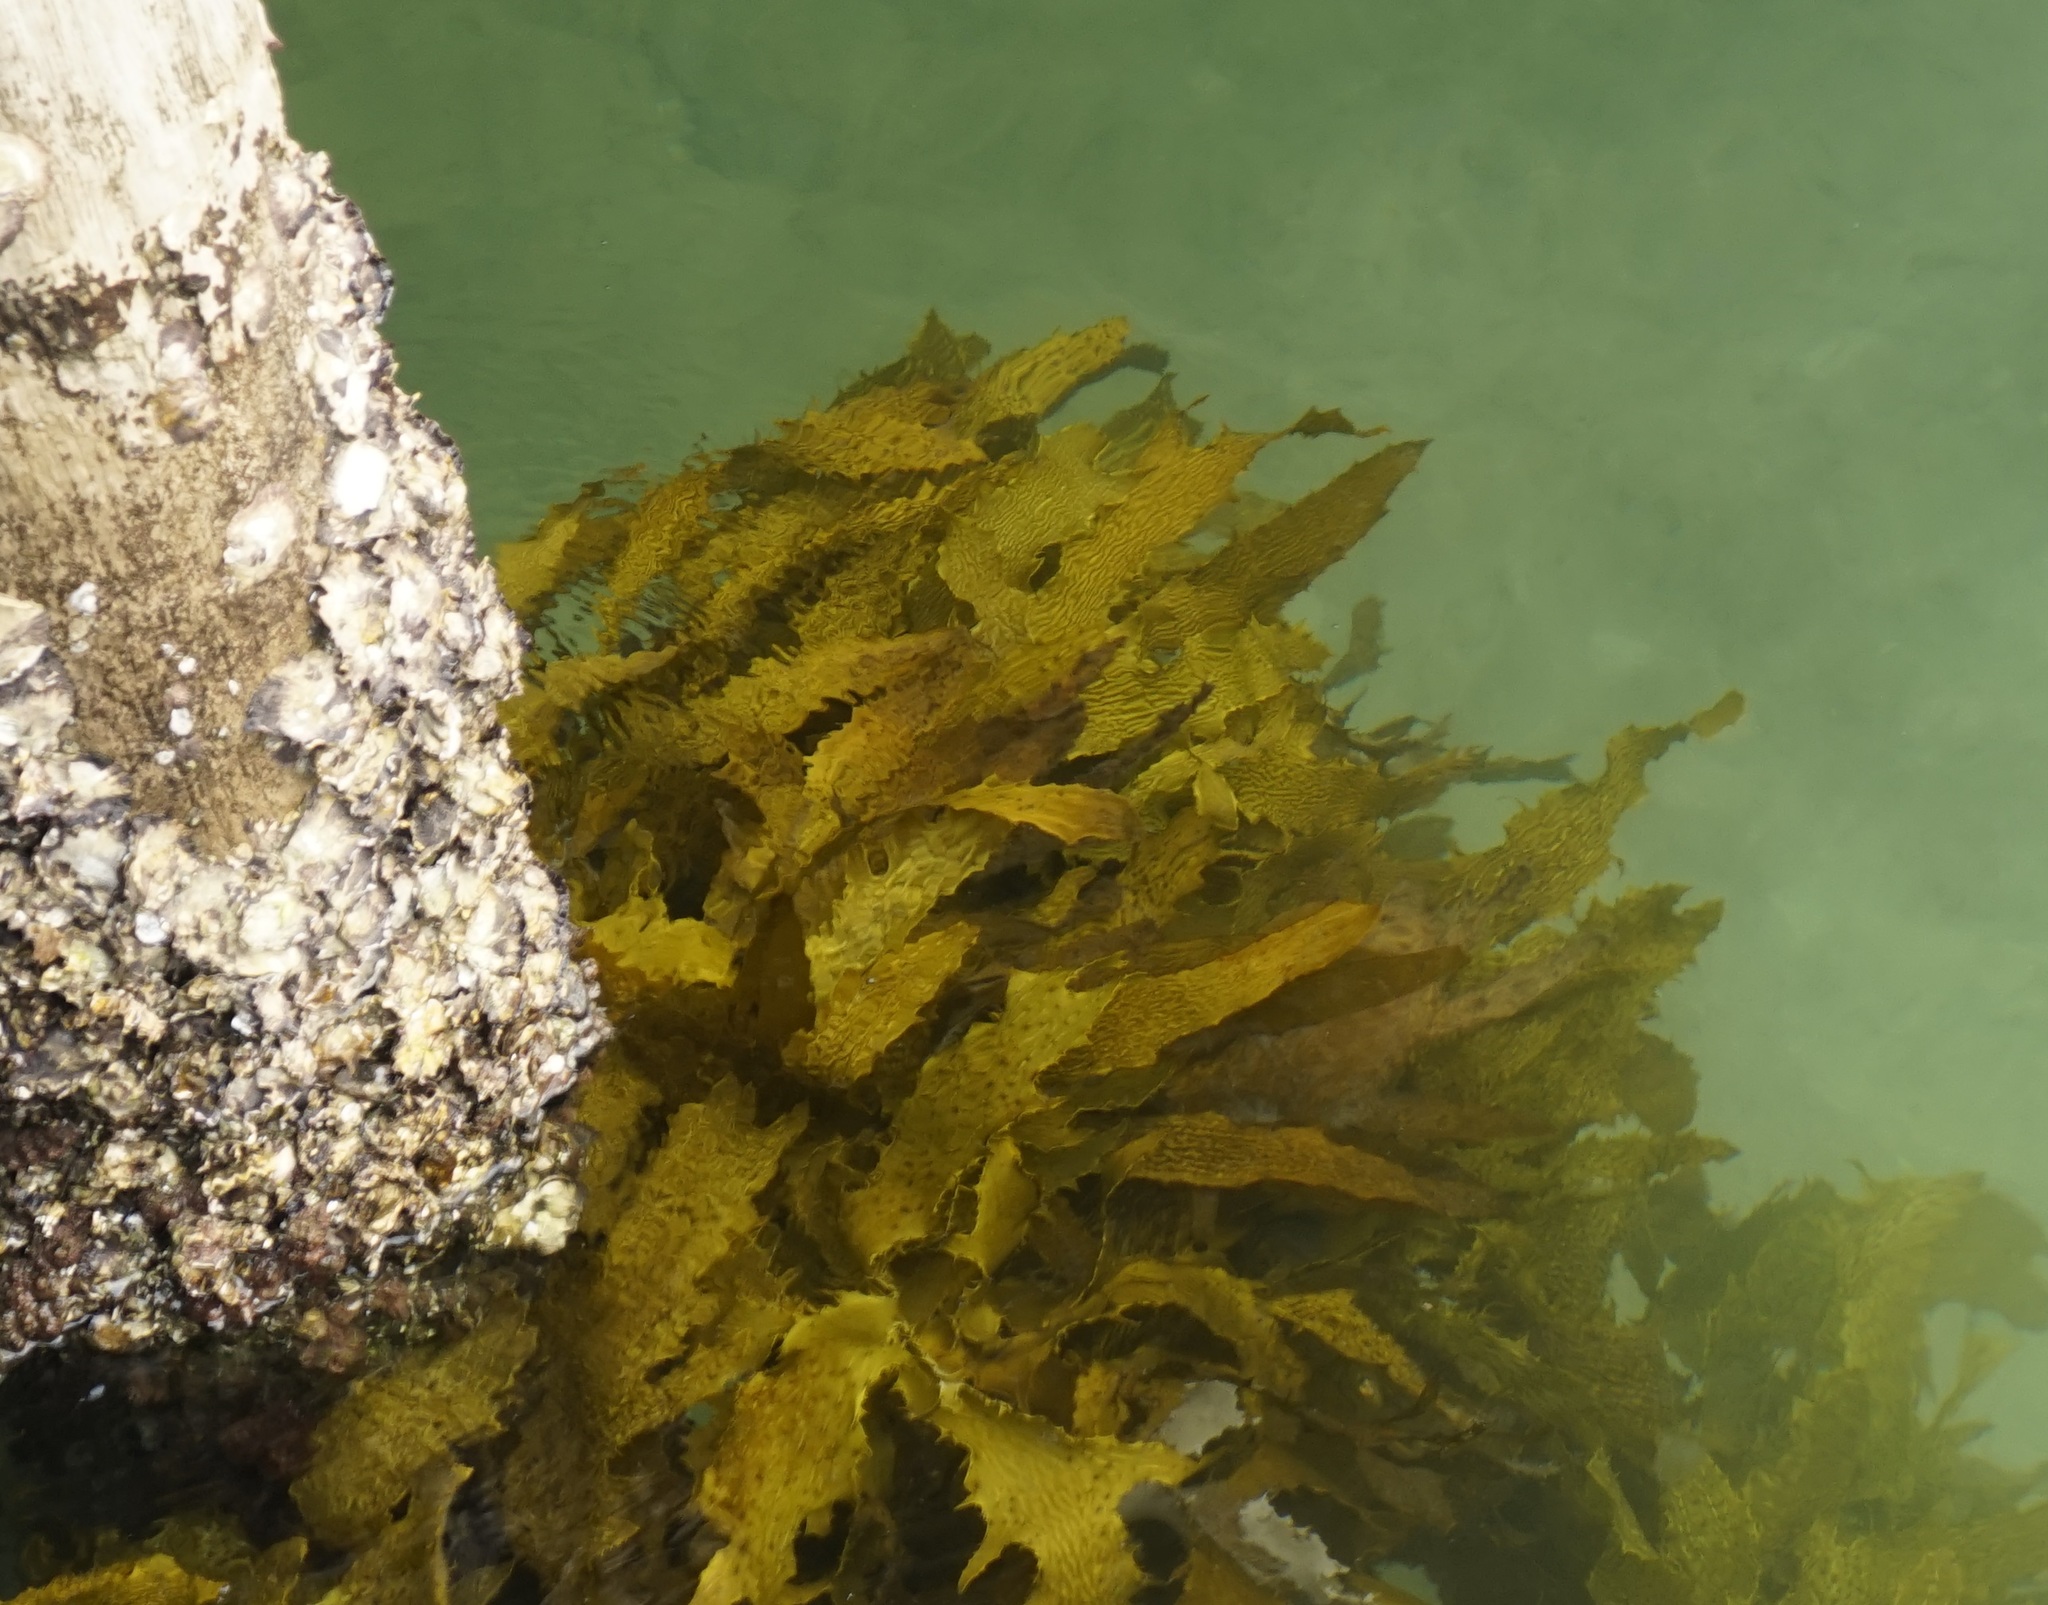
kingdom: Chromista
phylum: Ochrophyta
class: Phaeophyceae
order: Laminariales
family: Lessoniaceae
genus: Ecklonia
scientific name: Ecklonia radiata
